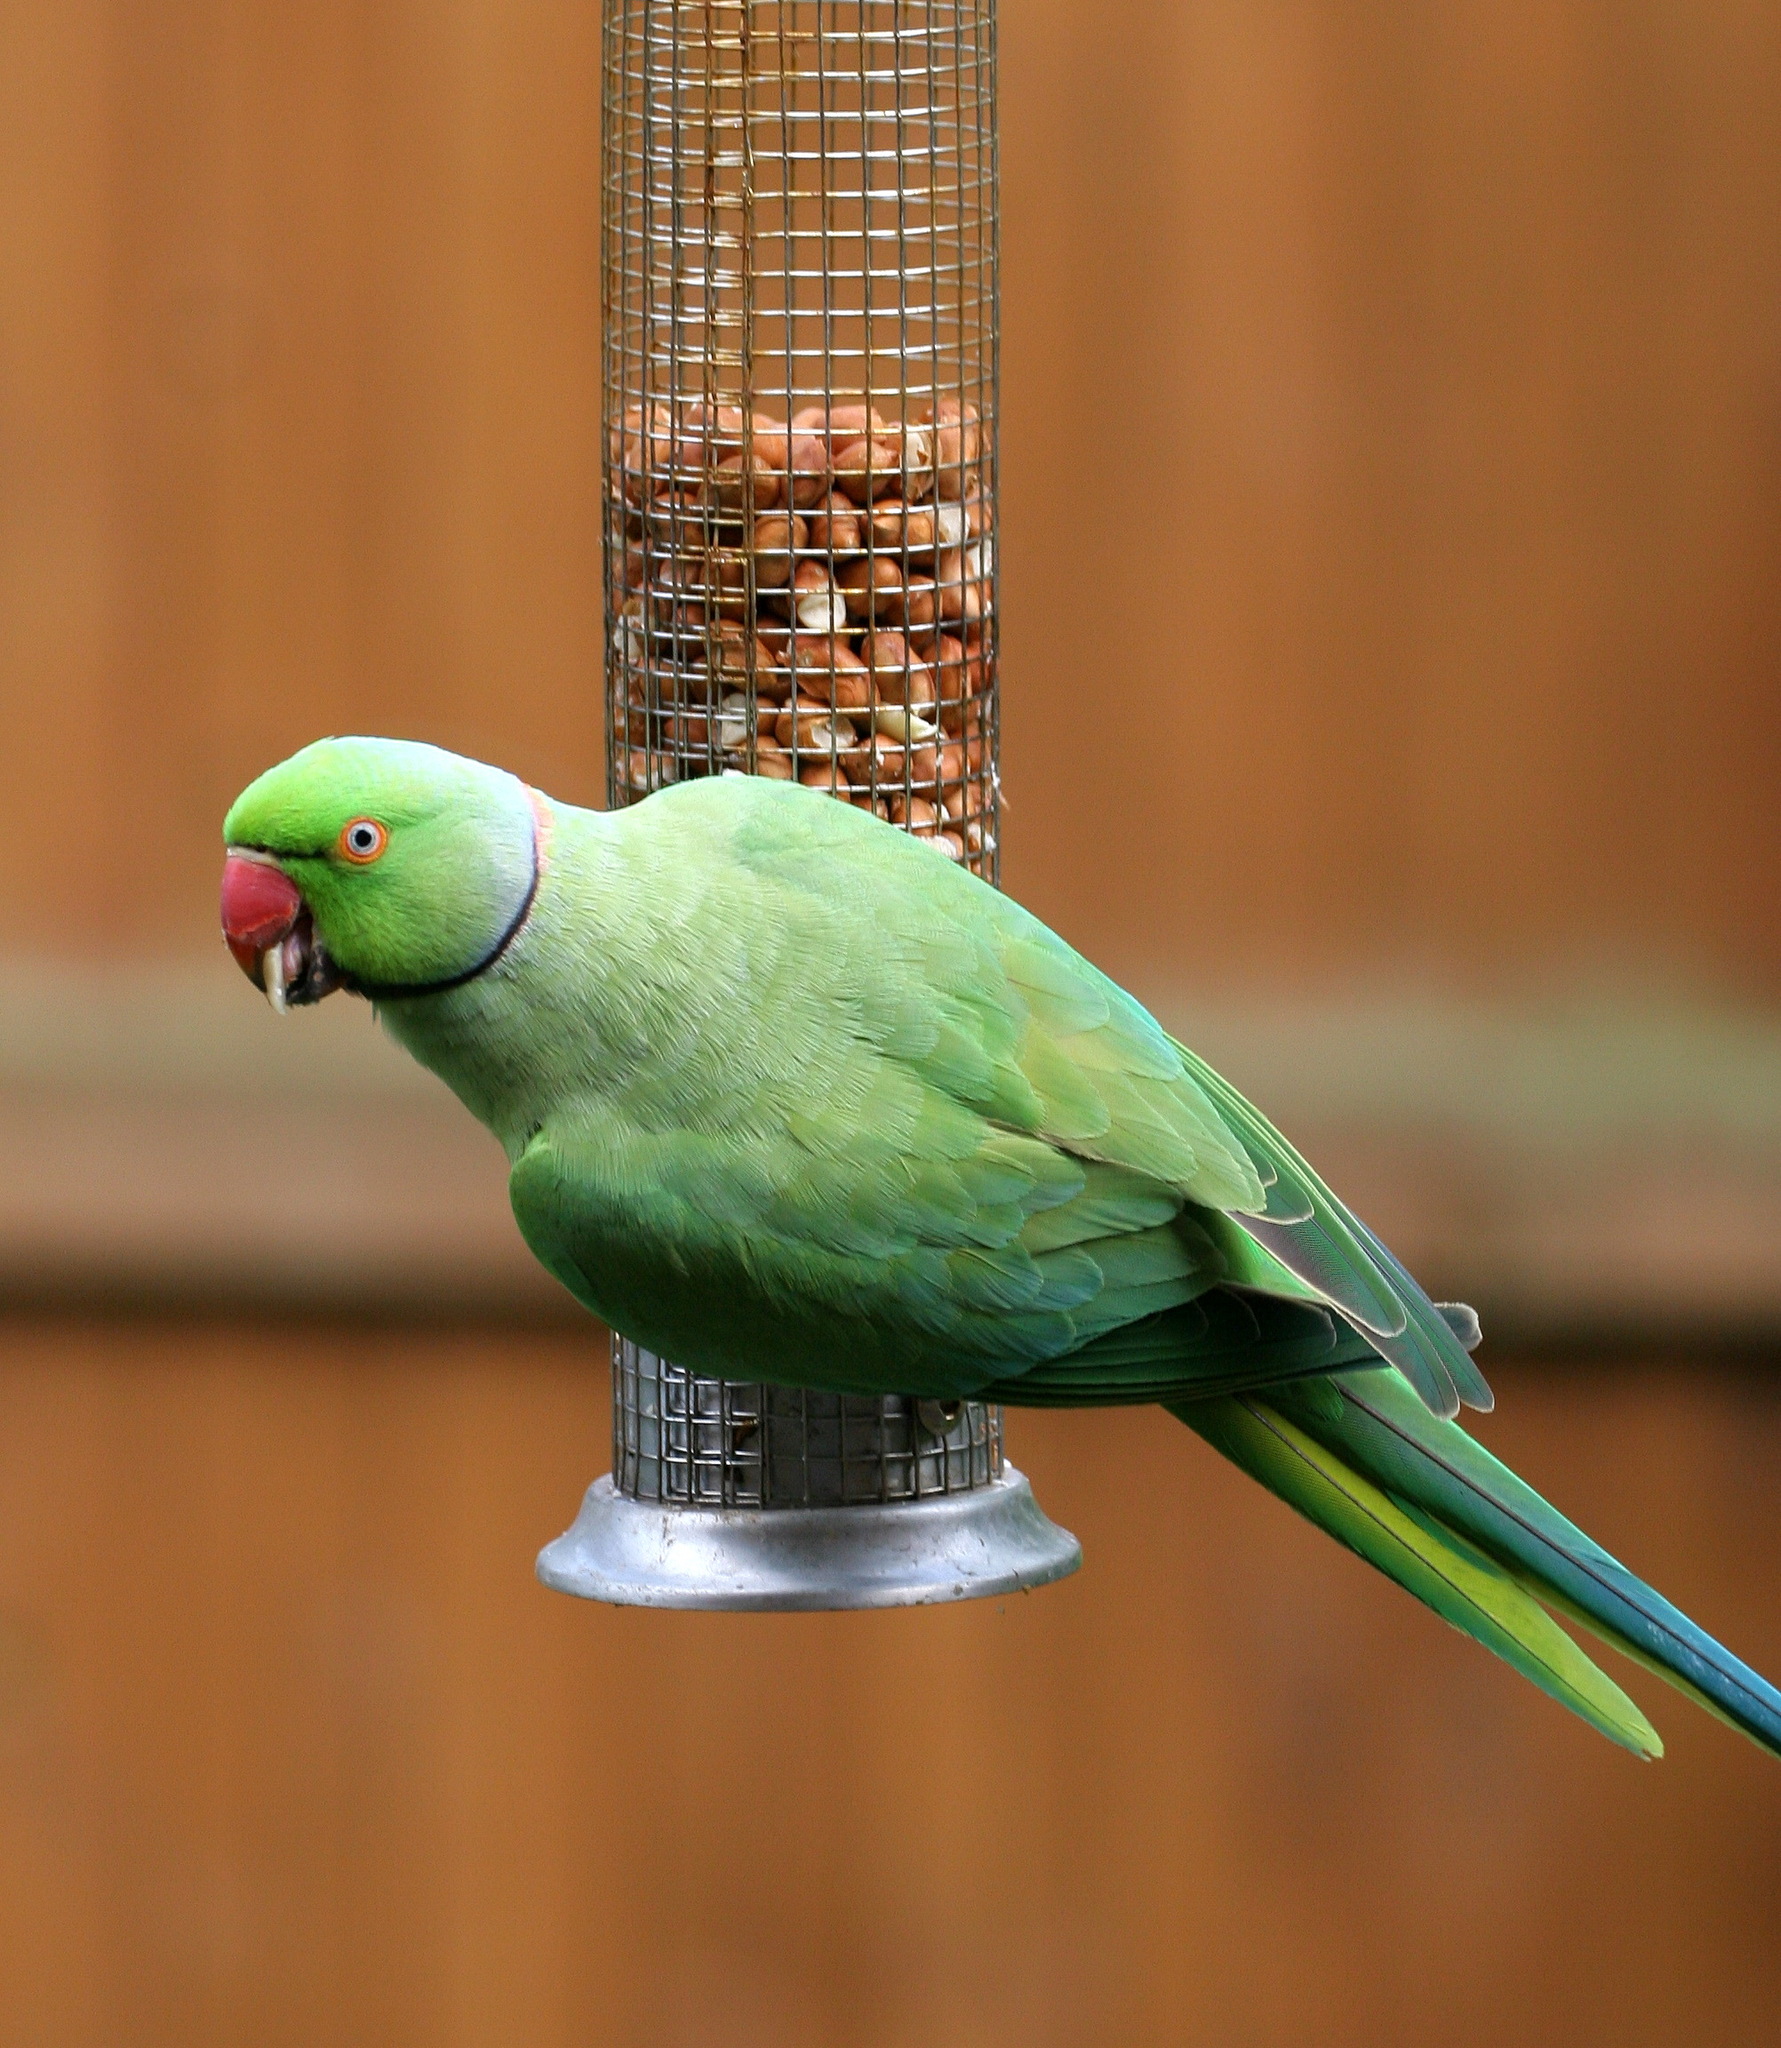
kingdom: Animalia
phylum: Chordata
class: Aves
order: Psittaciformes
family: Psittacidae
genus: Psittacula
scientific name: Psittacula krameri
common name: Rose-ringed parakeet
